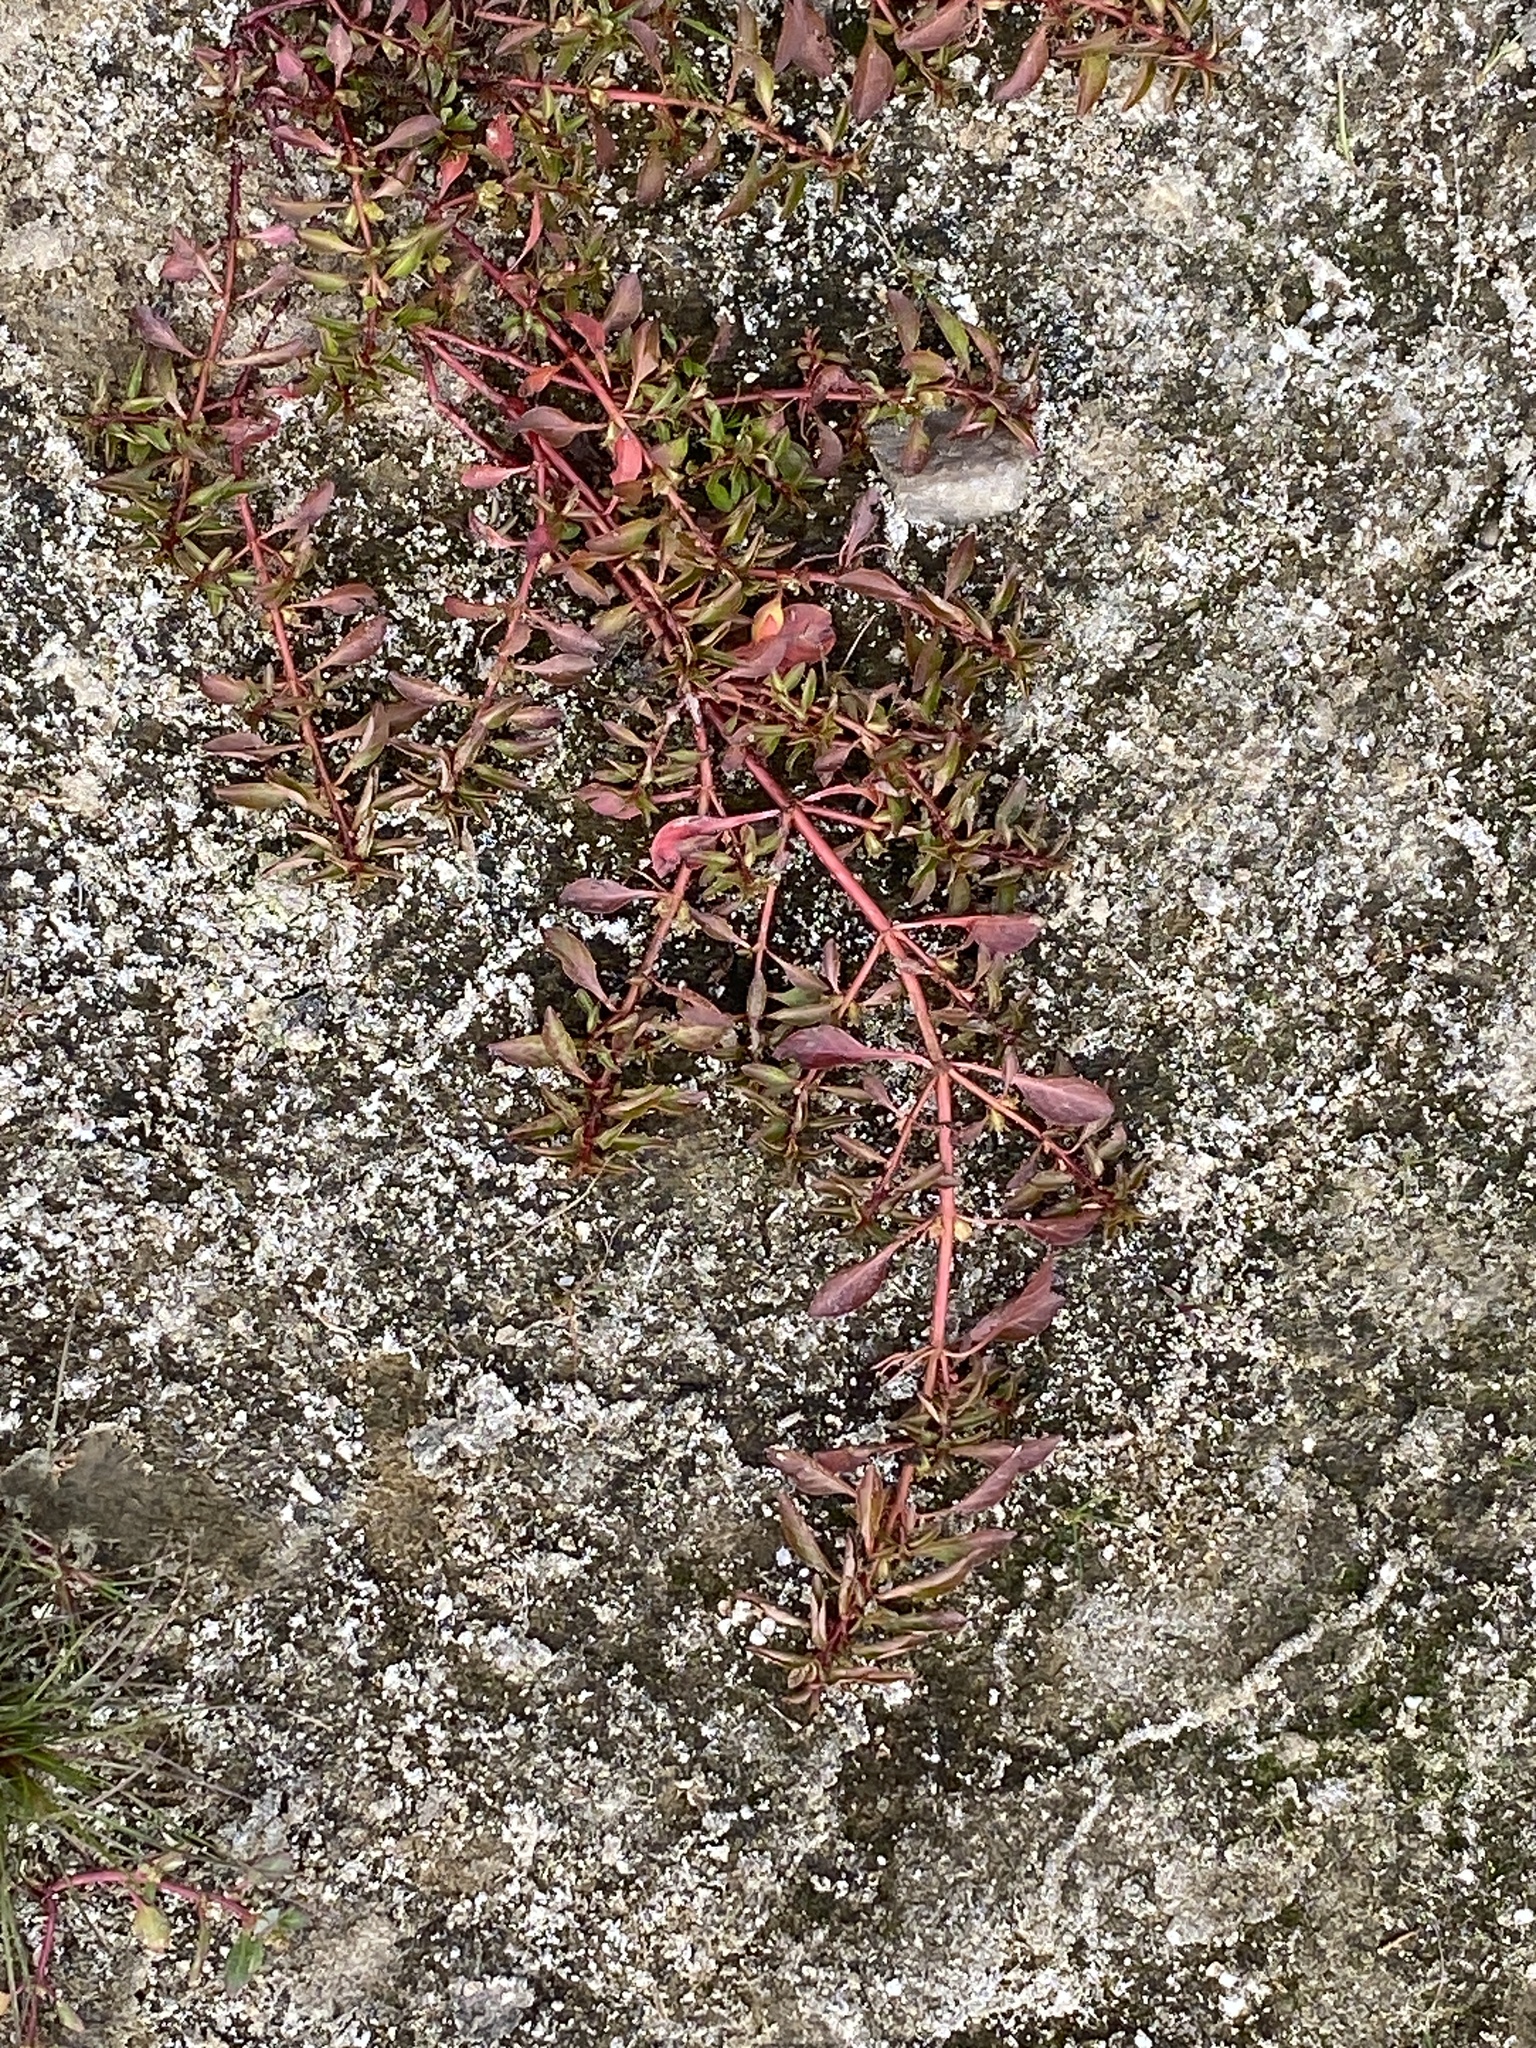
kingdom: Plantae
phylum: Tracheophyta
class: Magnoliopsida
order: Myrtales
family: Onagraceae
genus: Ludwigia
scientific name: Ludwigia palustris
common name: Hampshire-purslane
